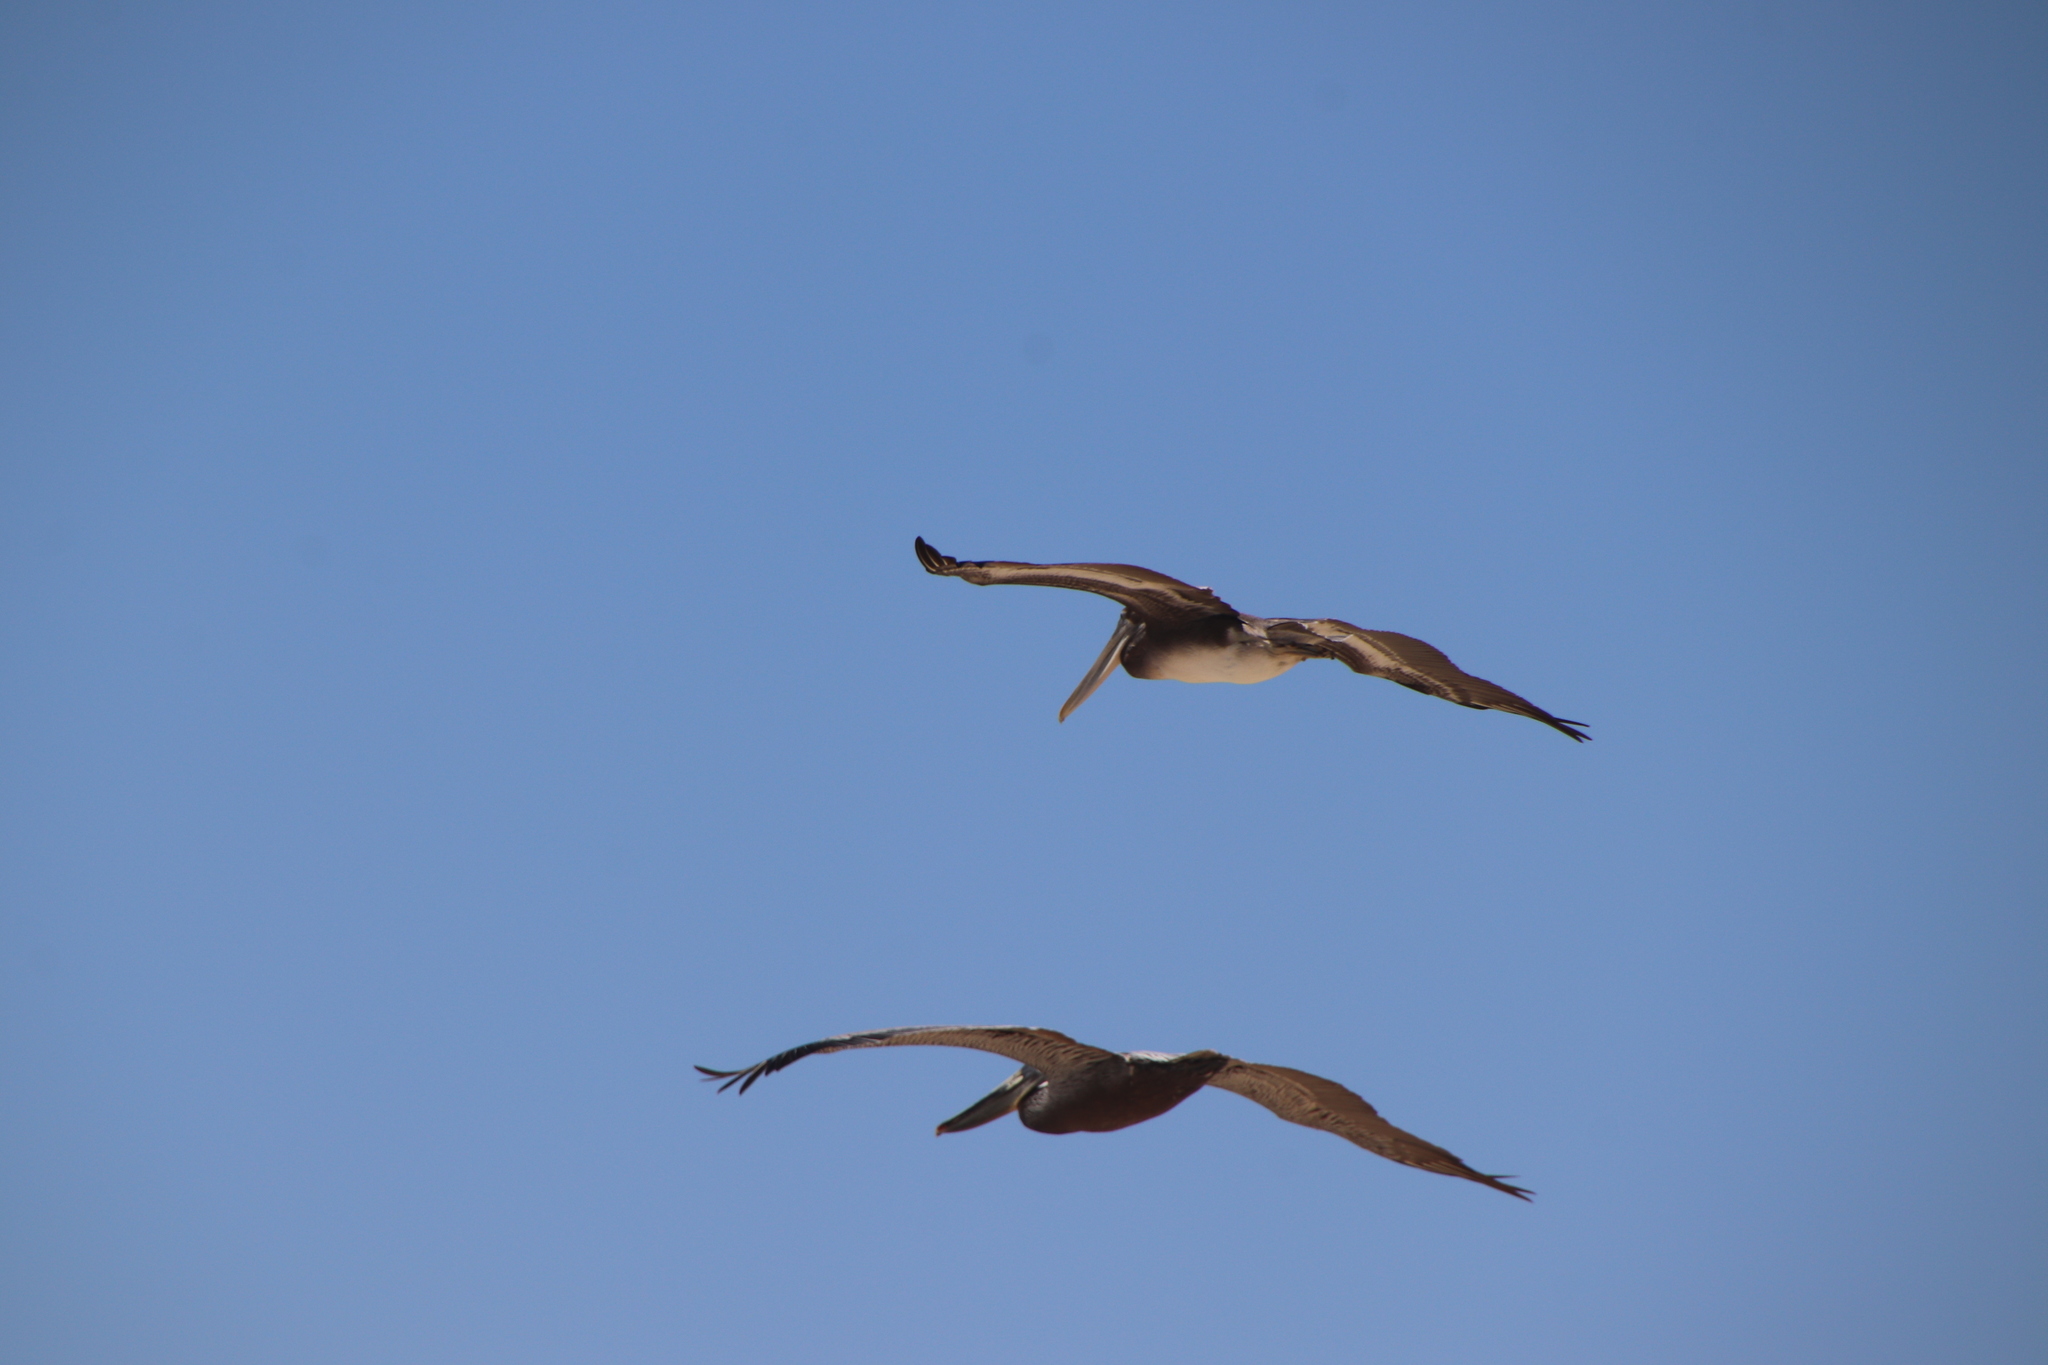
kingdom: Animalia
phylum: Chordata
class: Aves
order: Pelecaniformes
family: Pelecanidae
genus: Pelecanus
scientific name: Pelecanus occidentalis
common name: Brown pelican
